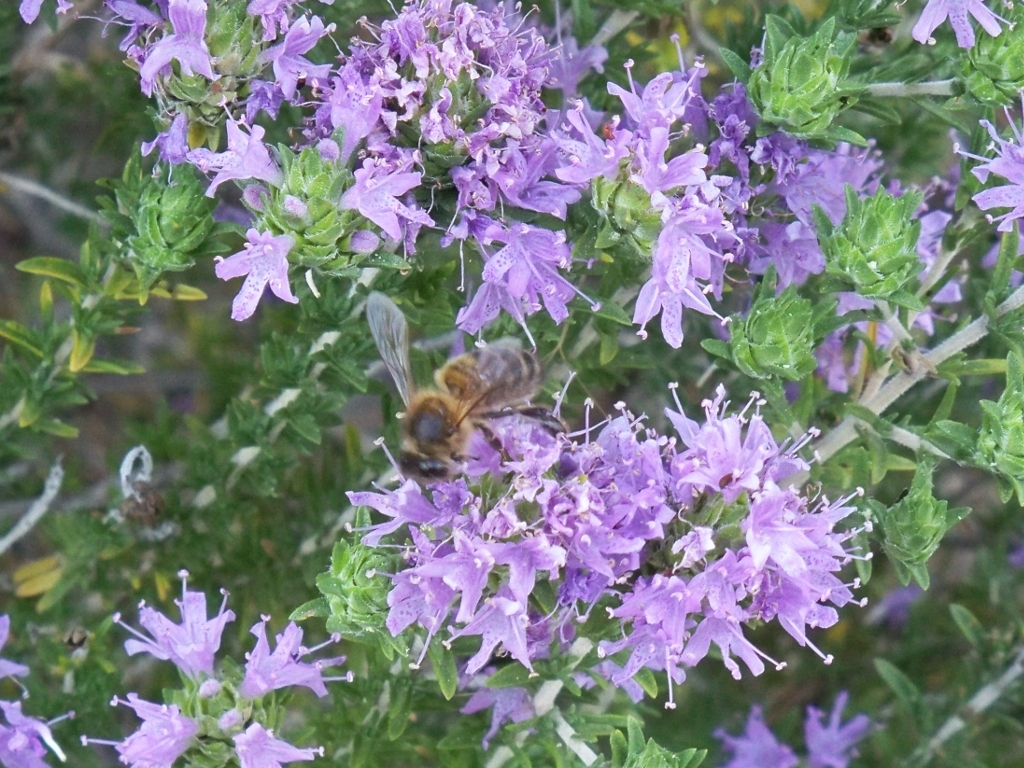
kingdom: Animalia
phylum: Arthropoda
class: Insecta
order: Hymenoptera
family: Apidae
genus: Apis
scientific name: Apis mellifera
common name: Honey bee
